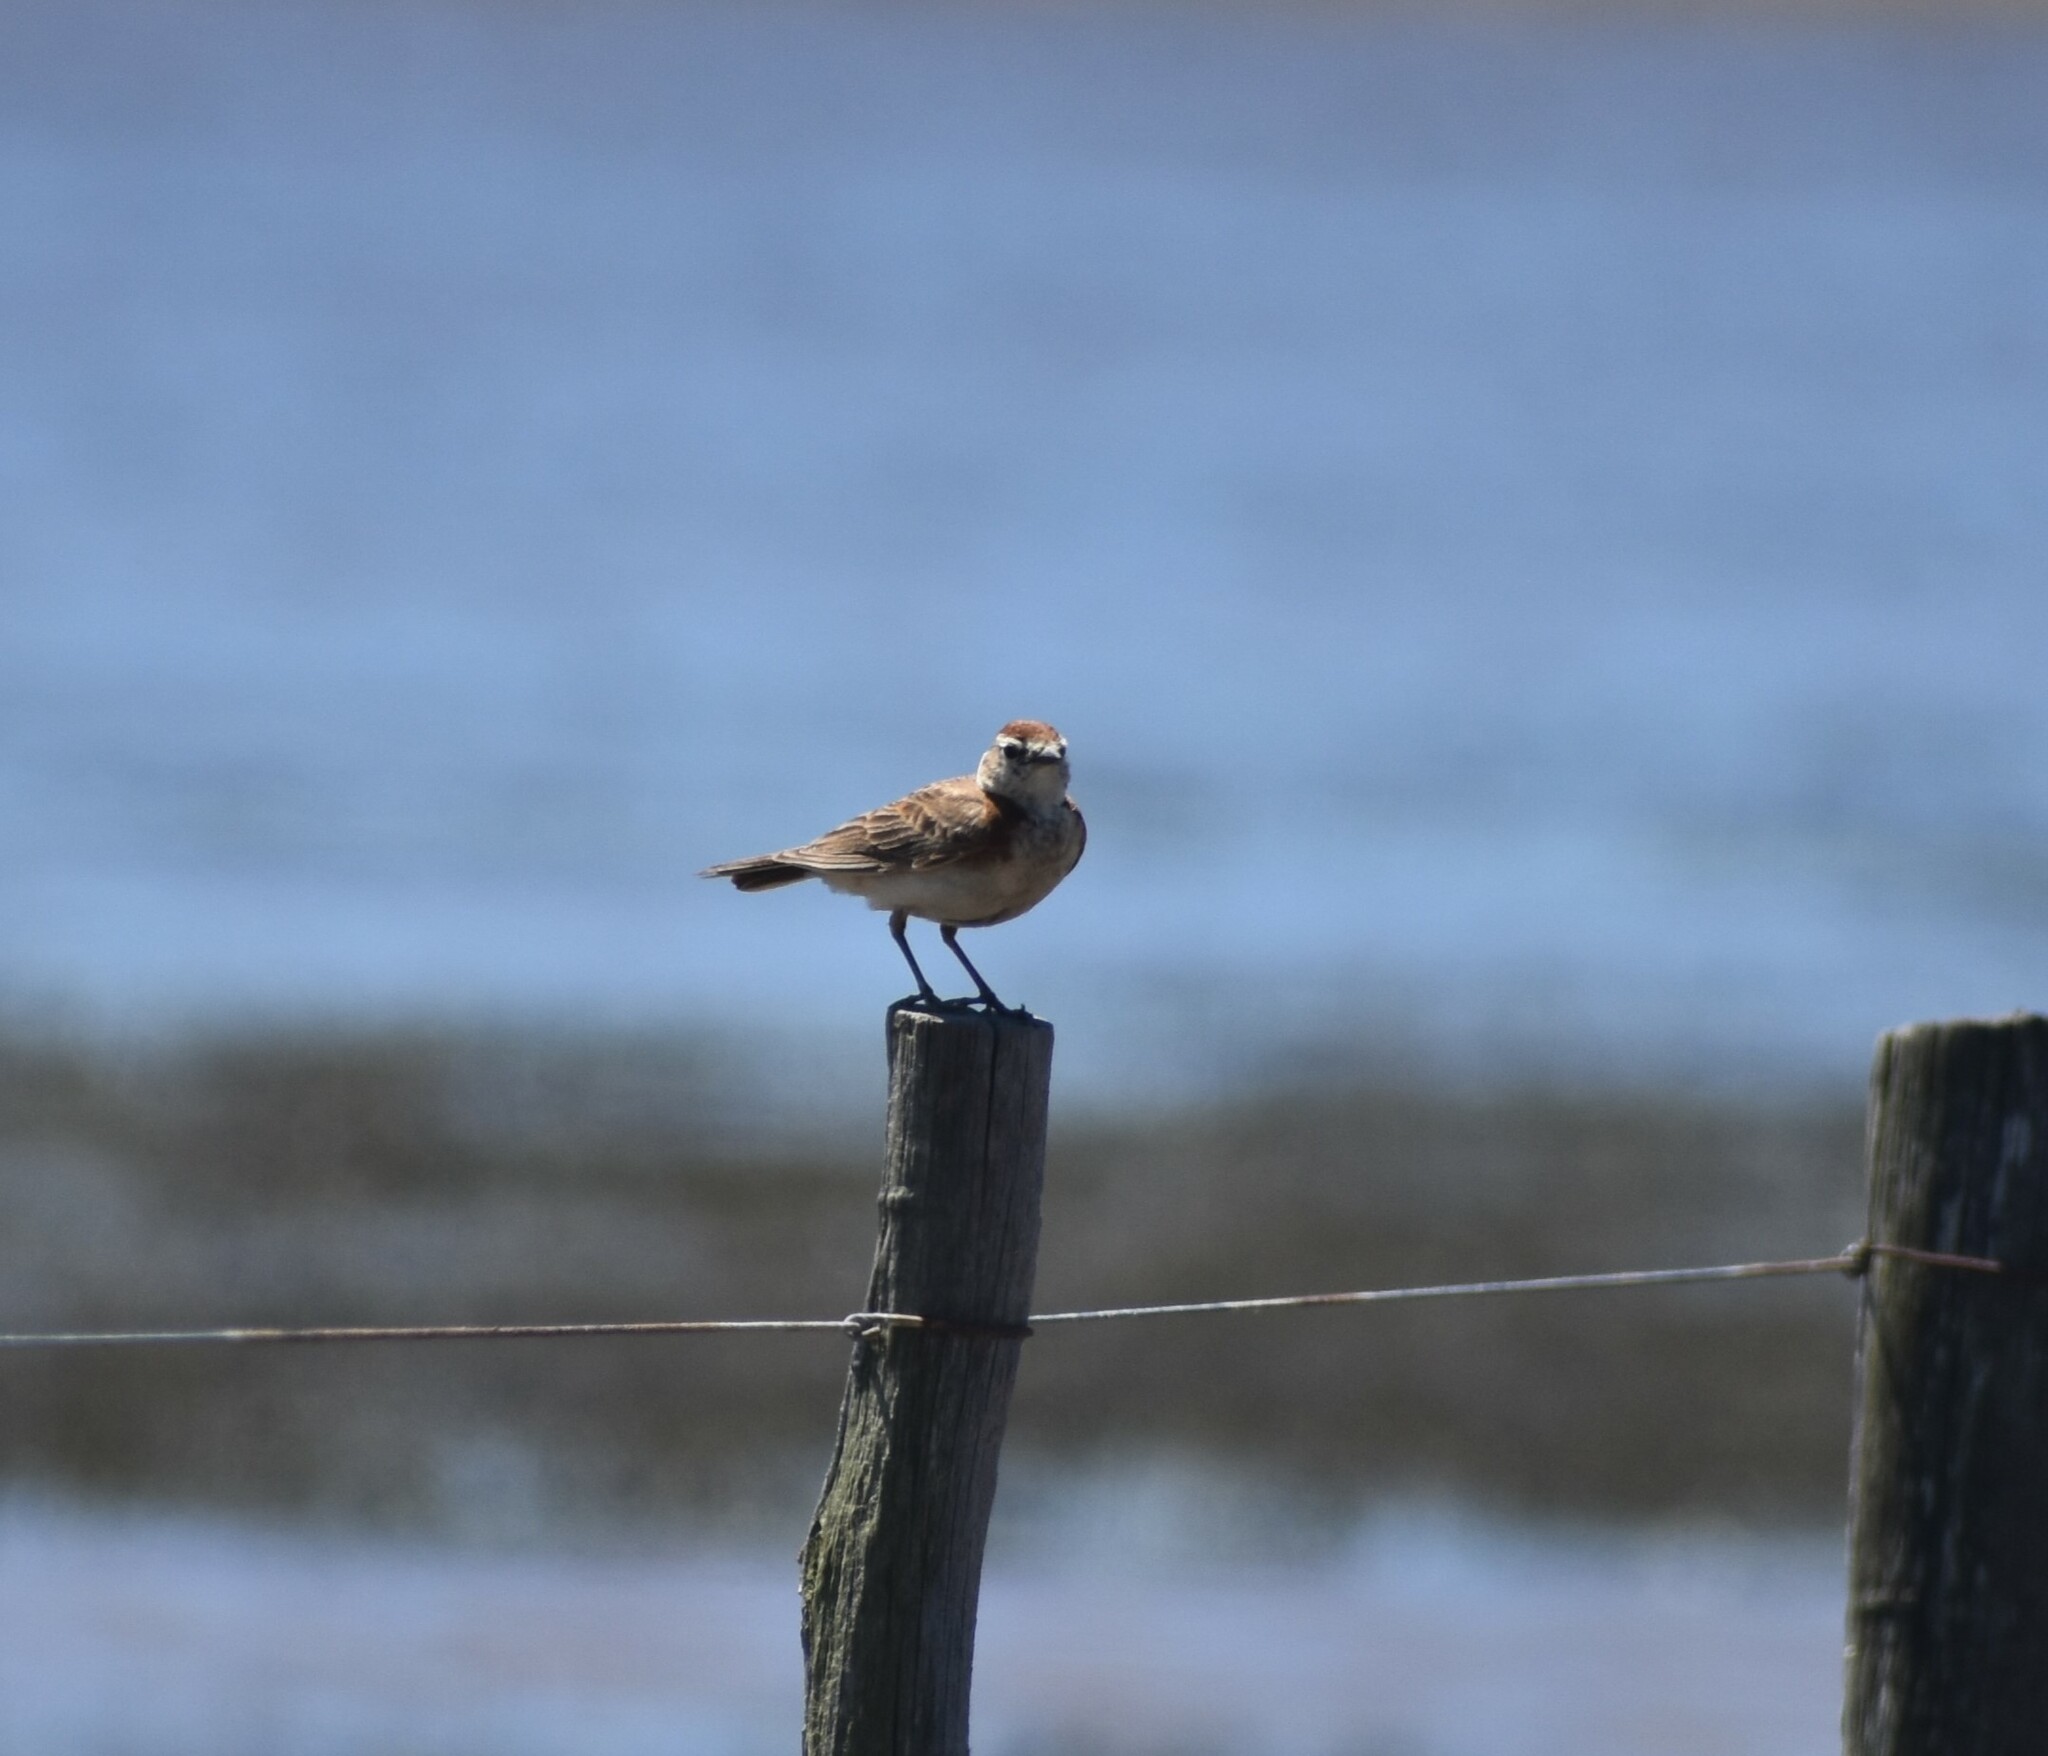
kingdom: Animalia
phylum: Chordata
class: Aves
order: Passeriformes
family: Alaudidae
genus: Calandrella
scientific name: Calandrella cinerea
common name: Red-capped lark
